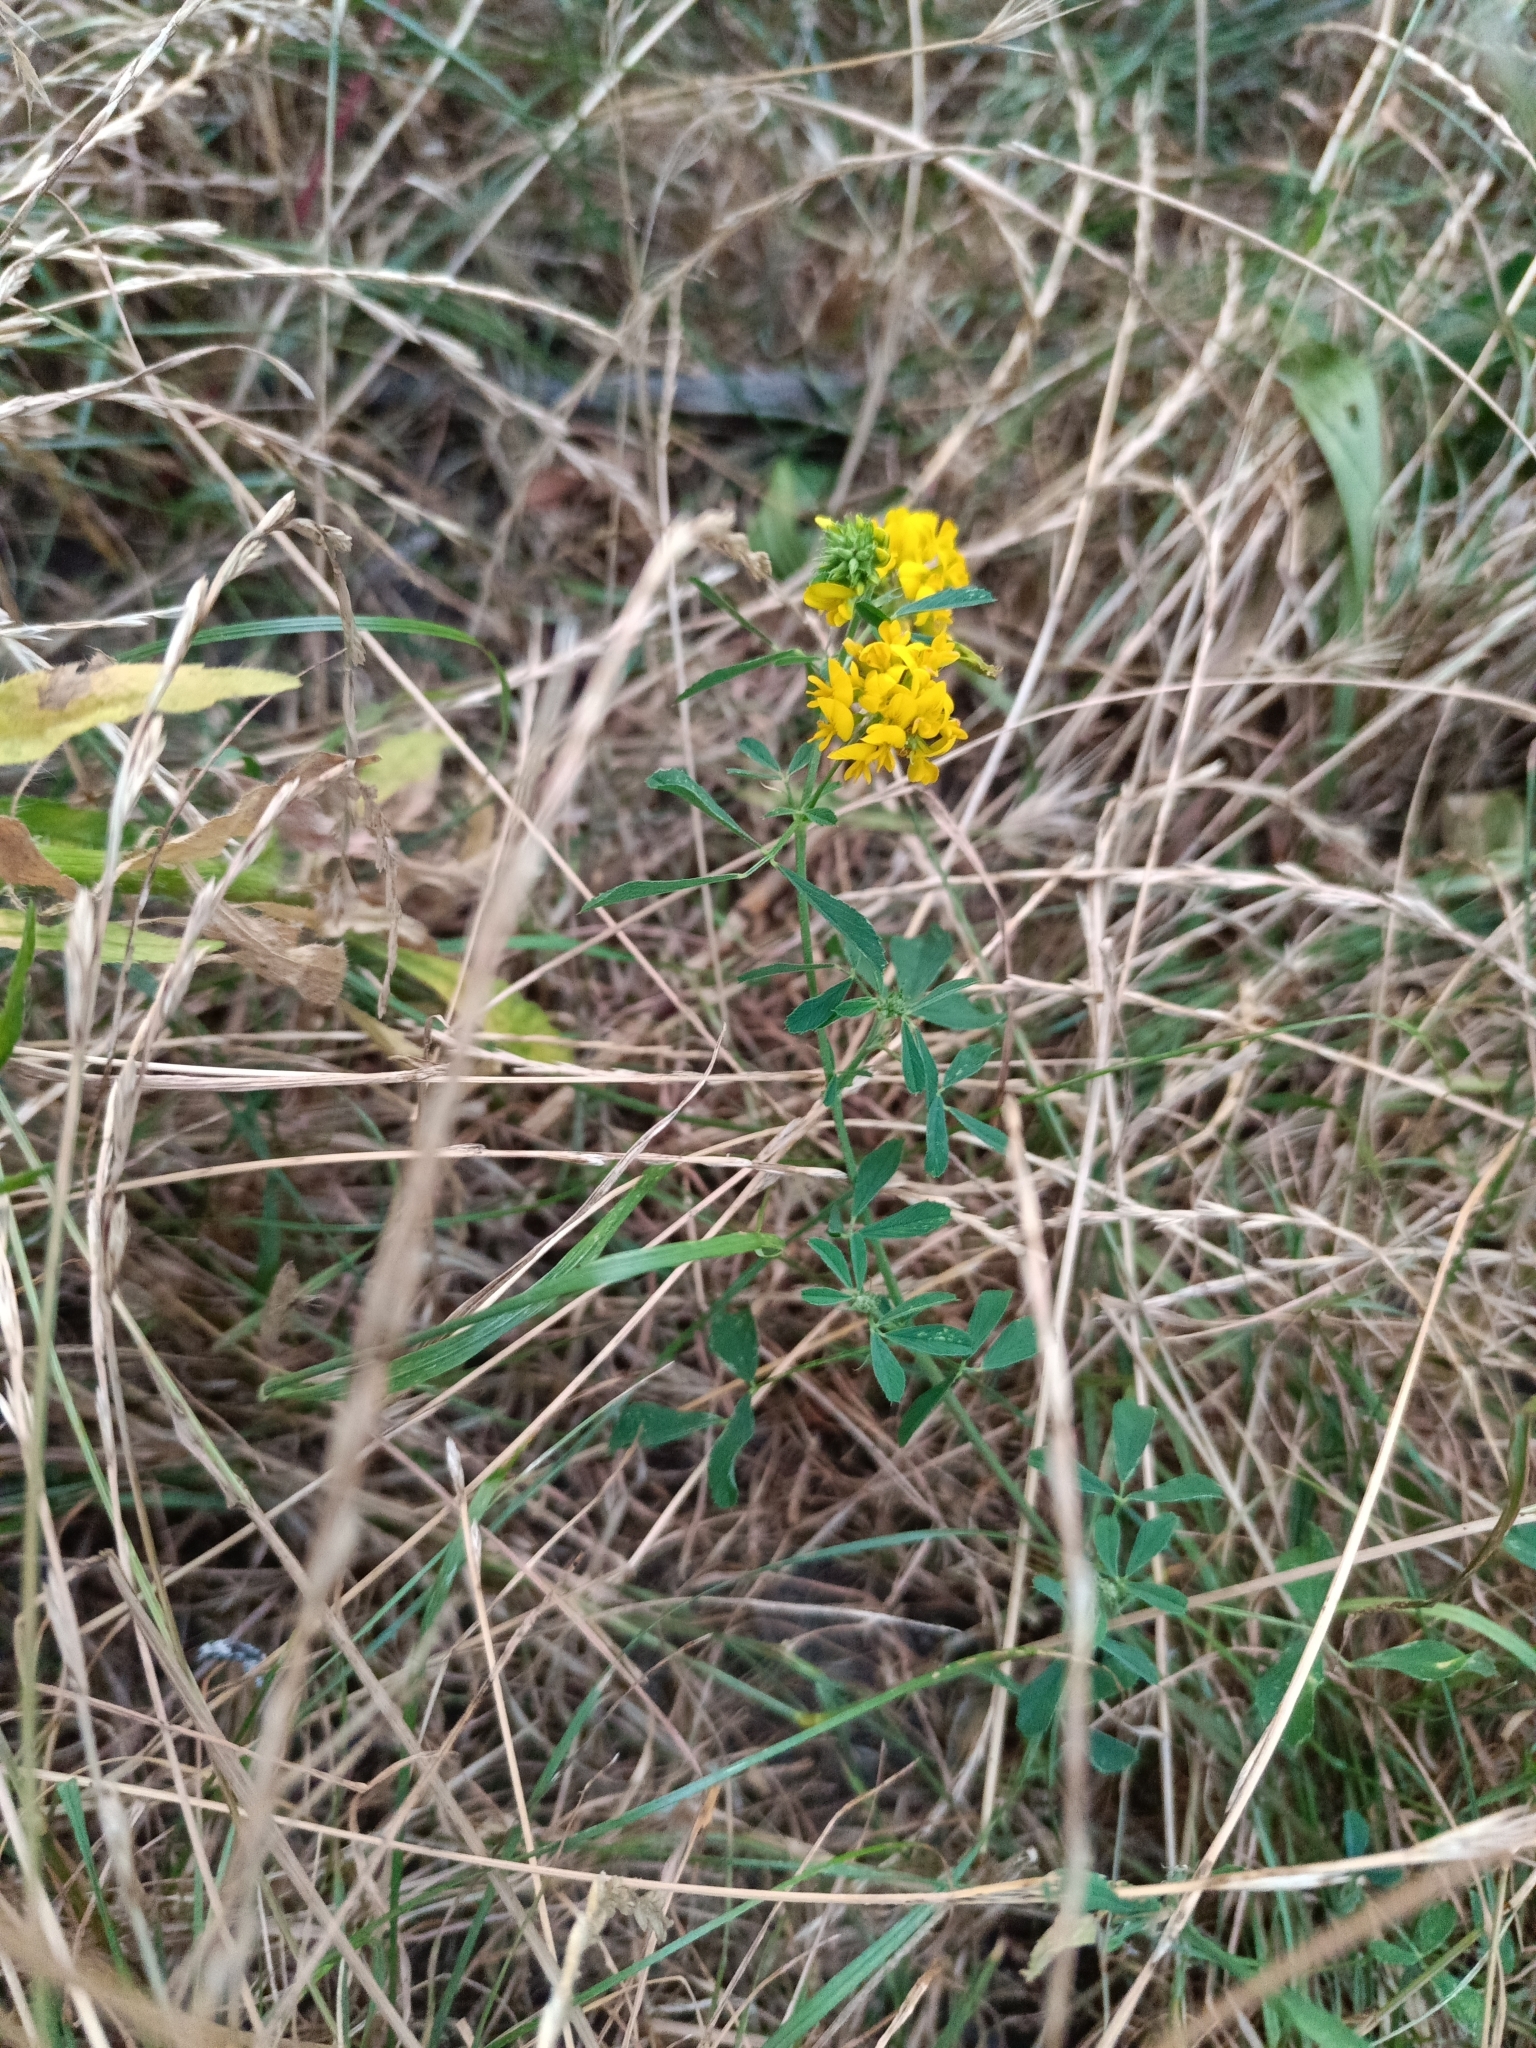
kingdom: Plantae
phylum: Tracheophyta
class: Magnoliopsida
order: Fabales
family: Fabaceae
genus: Medicago
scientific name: Medicago falcata
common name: Sickle medick
